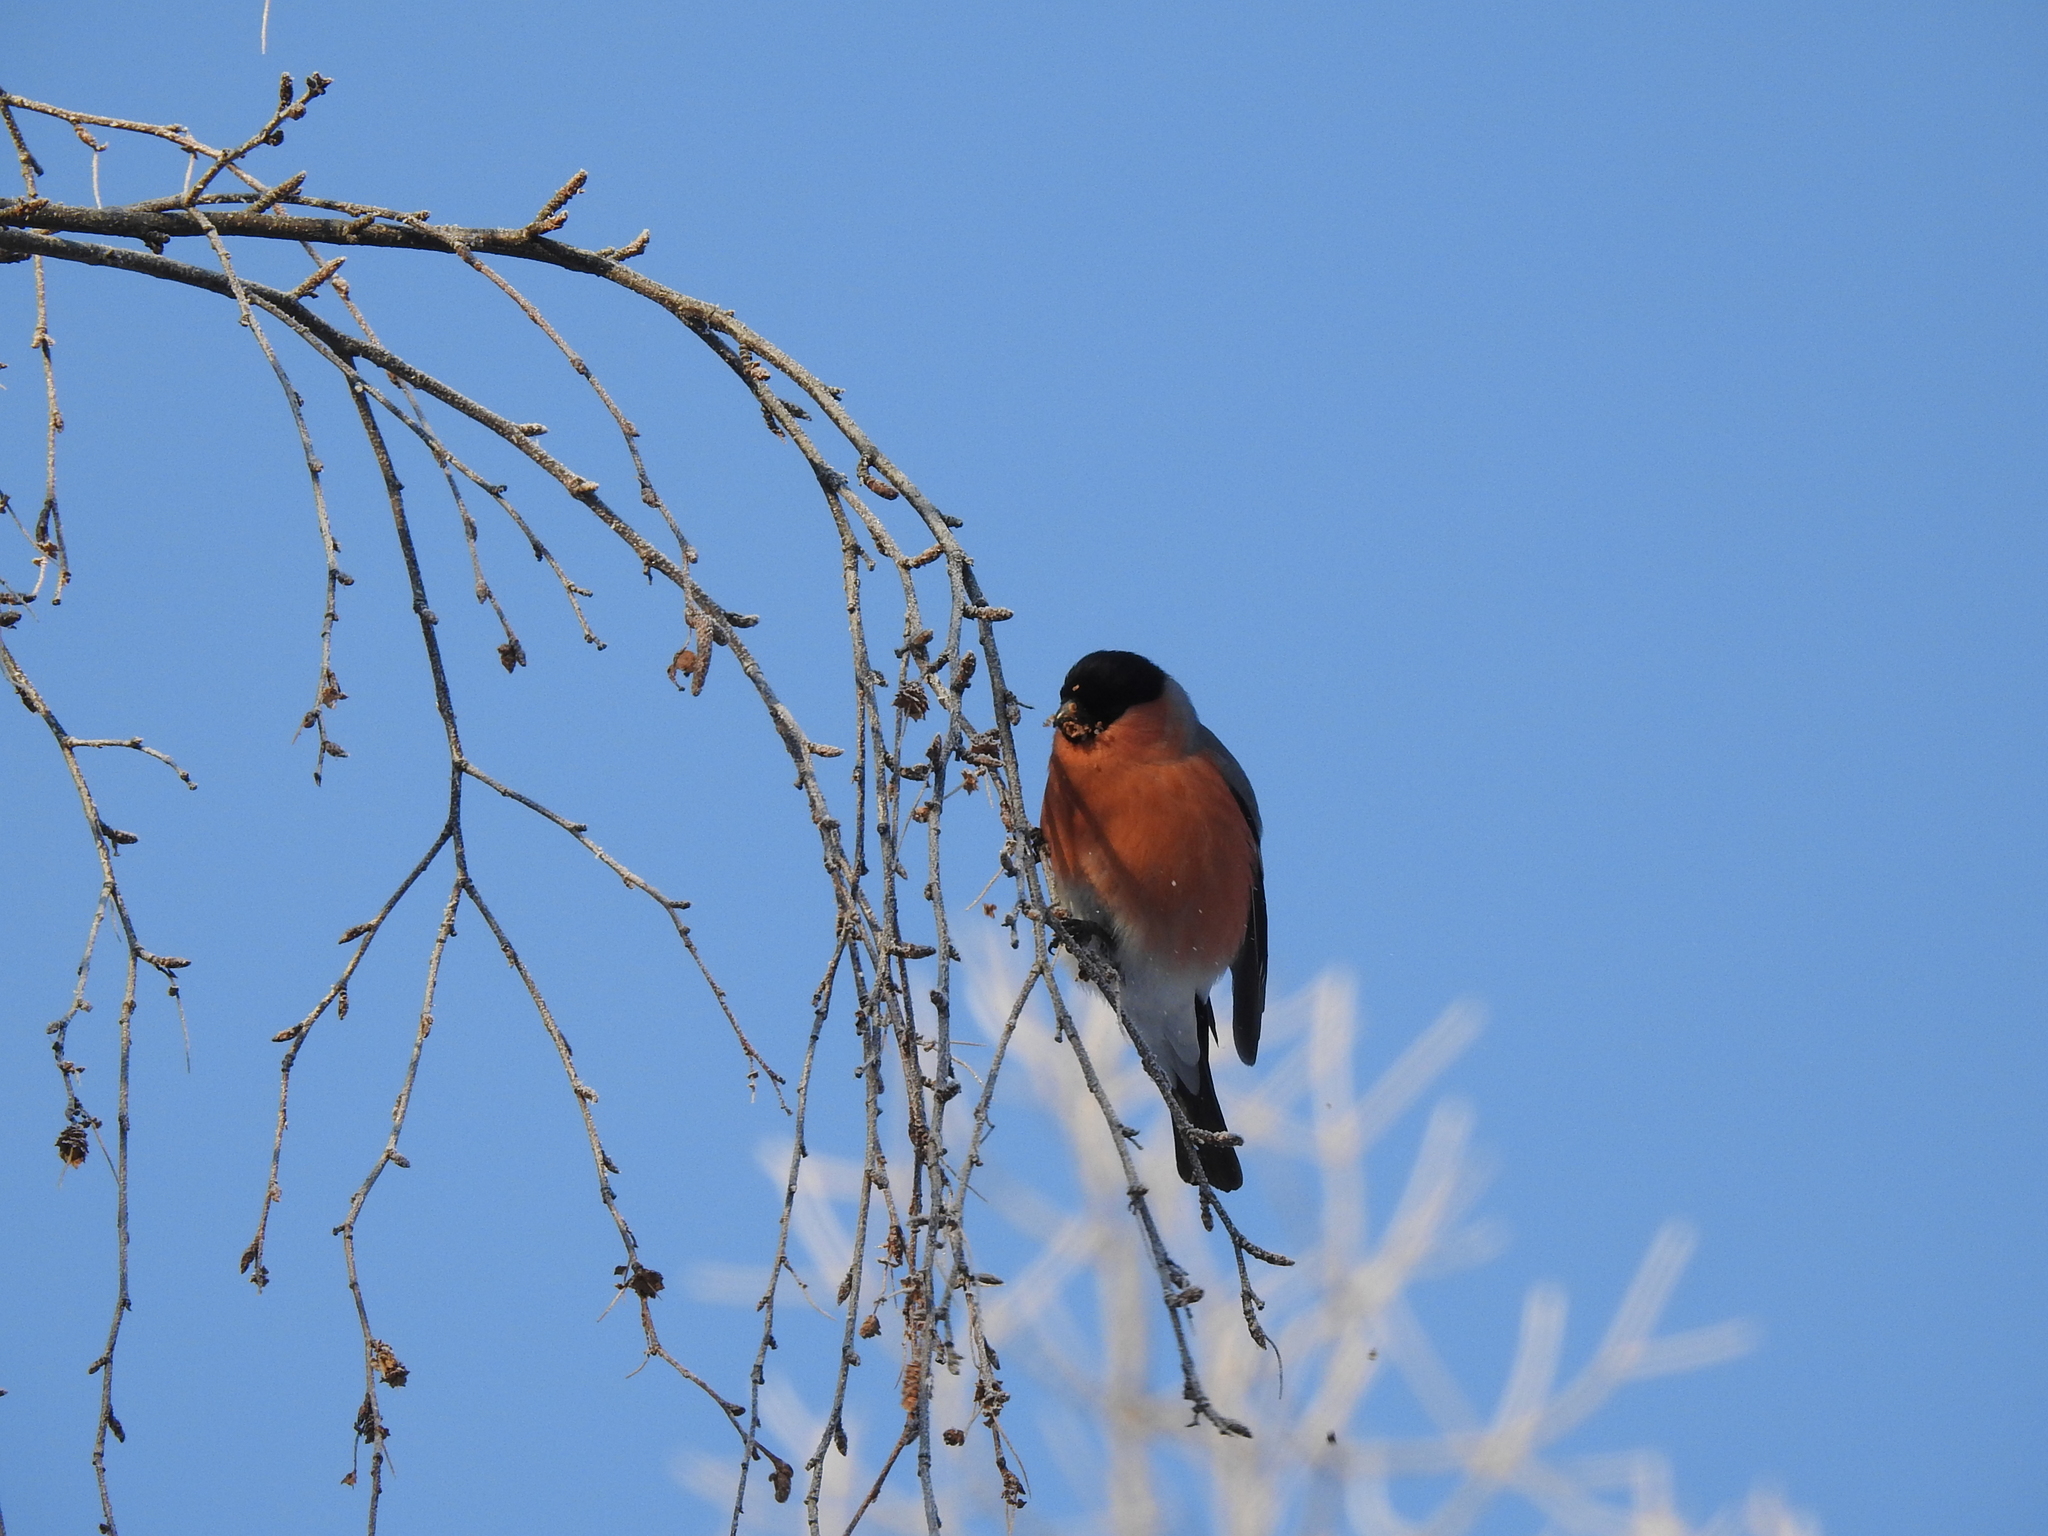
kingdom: Animalia
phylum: Chordata
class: Aves
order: Passeriformes
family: Fringillidae
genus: Pyrrhula
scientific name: Pyrrhula pyrrhula
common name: Eurasian bullfinch
